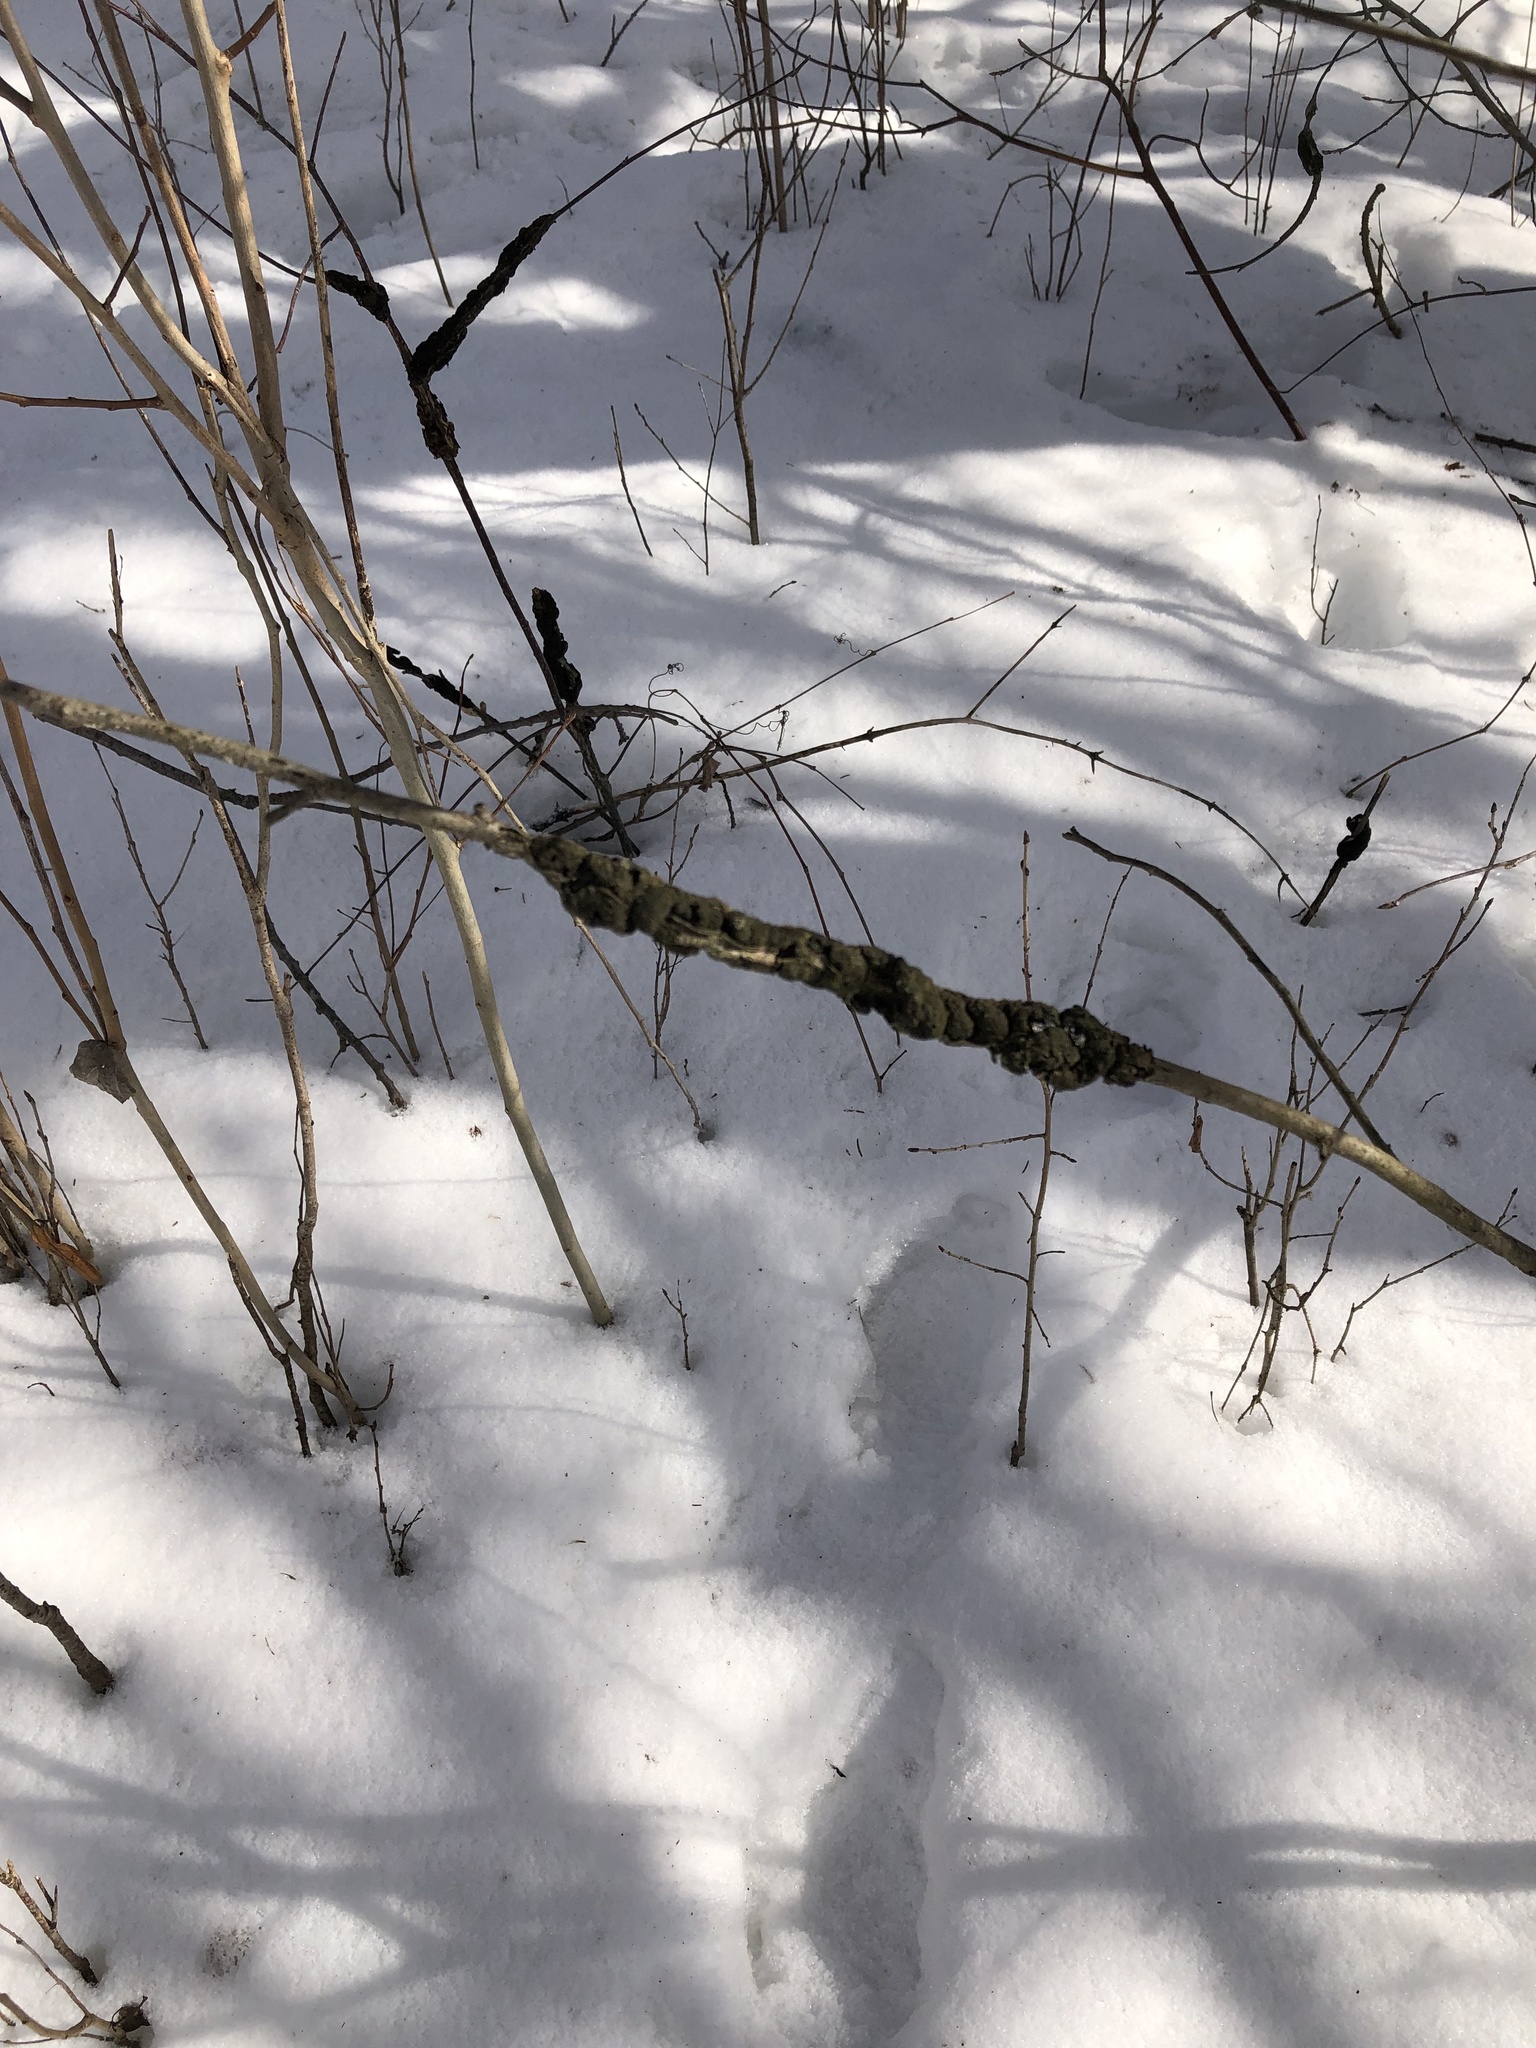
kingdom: Fungi
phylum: Ascomycota
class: Dothideomycetes
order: Venturiales
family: Venturiaceae
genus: Apiosporina
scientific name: Apiosporina morbosa
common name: Black knot
